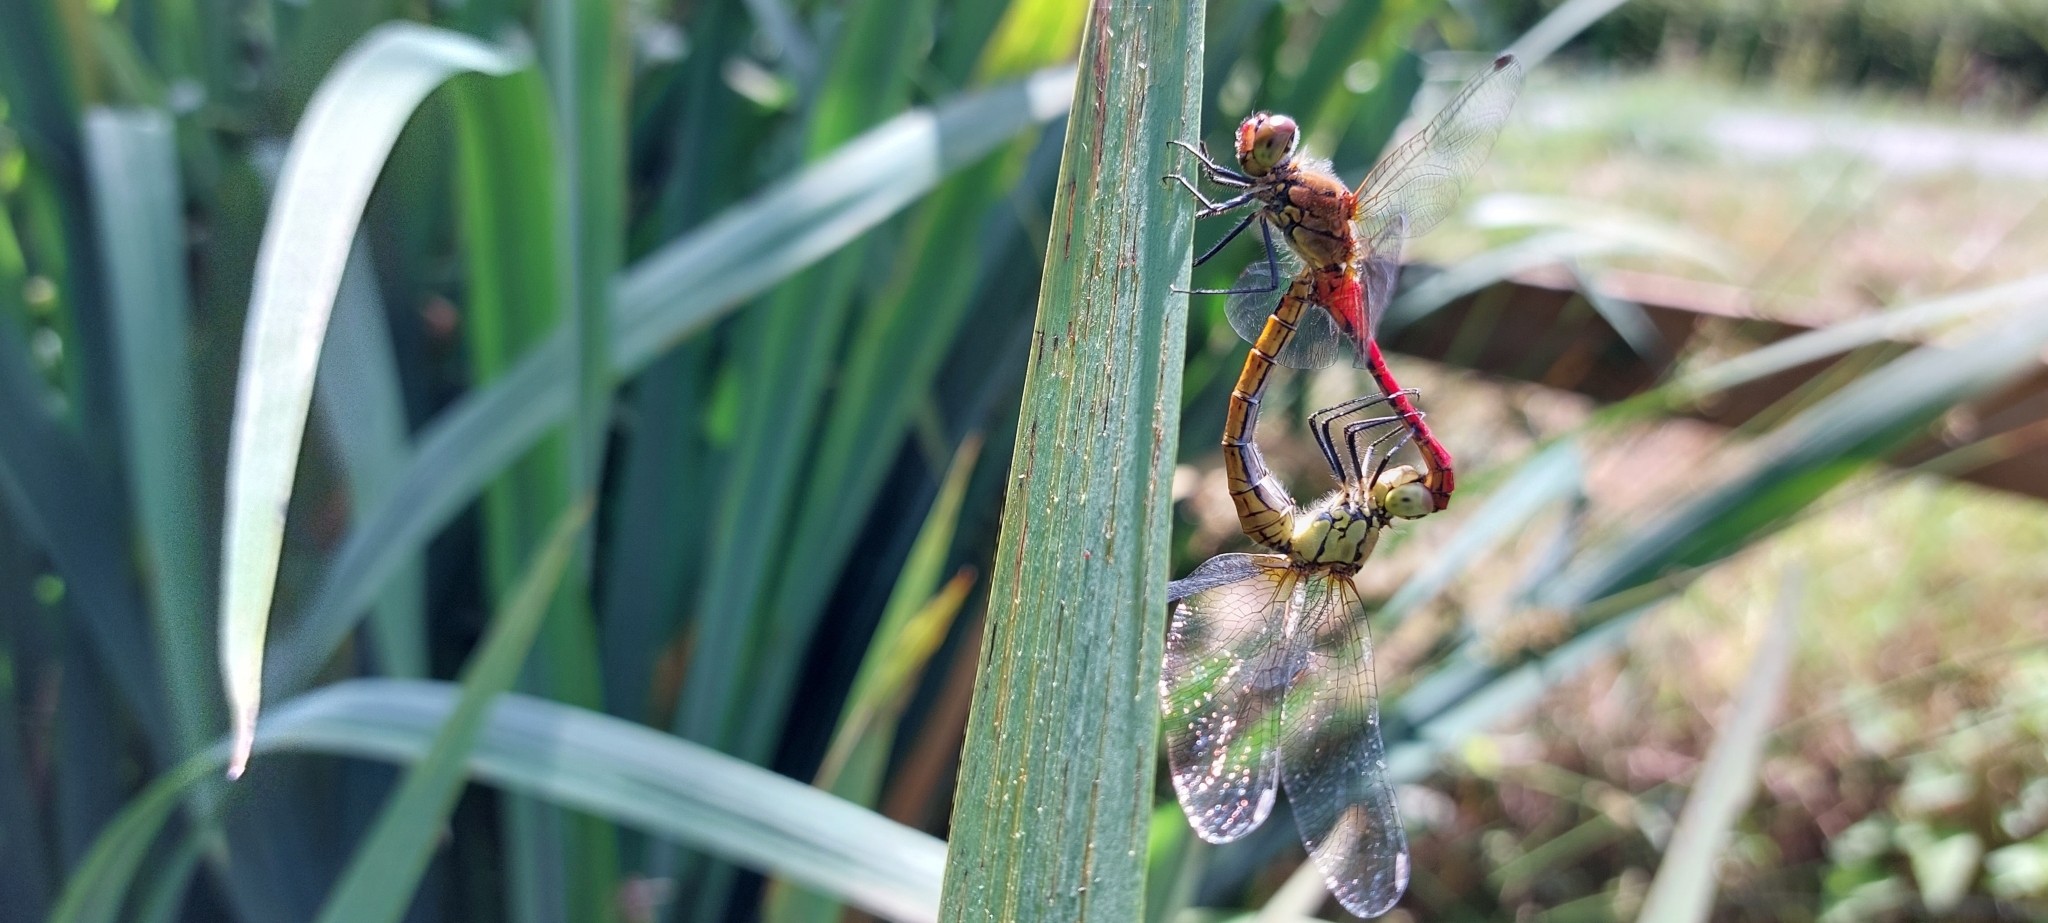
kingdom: Animalia
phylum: Arthropoda
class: Insecta
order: Odonata
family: Libellulidae
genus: Sympetrum
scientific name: Sympetrum sanguineum
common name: Ruddy darter
